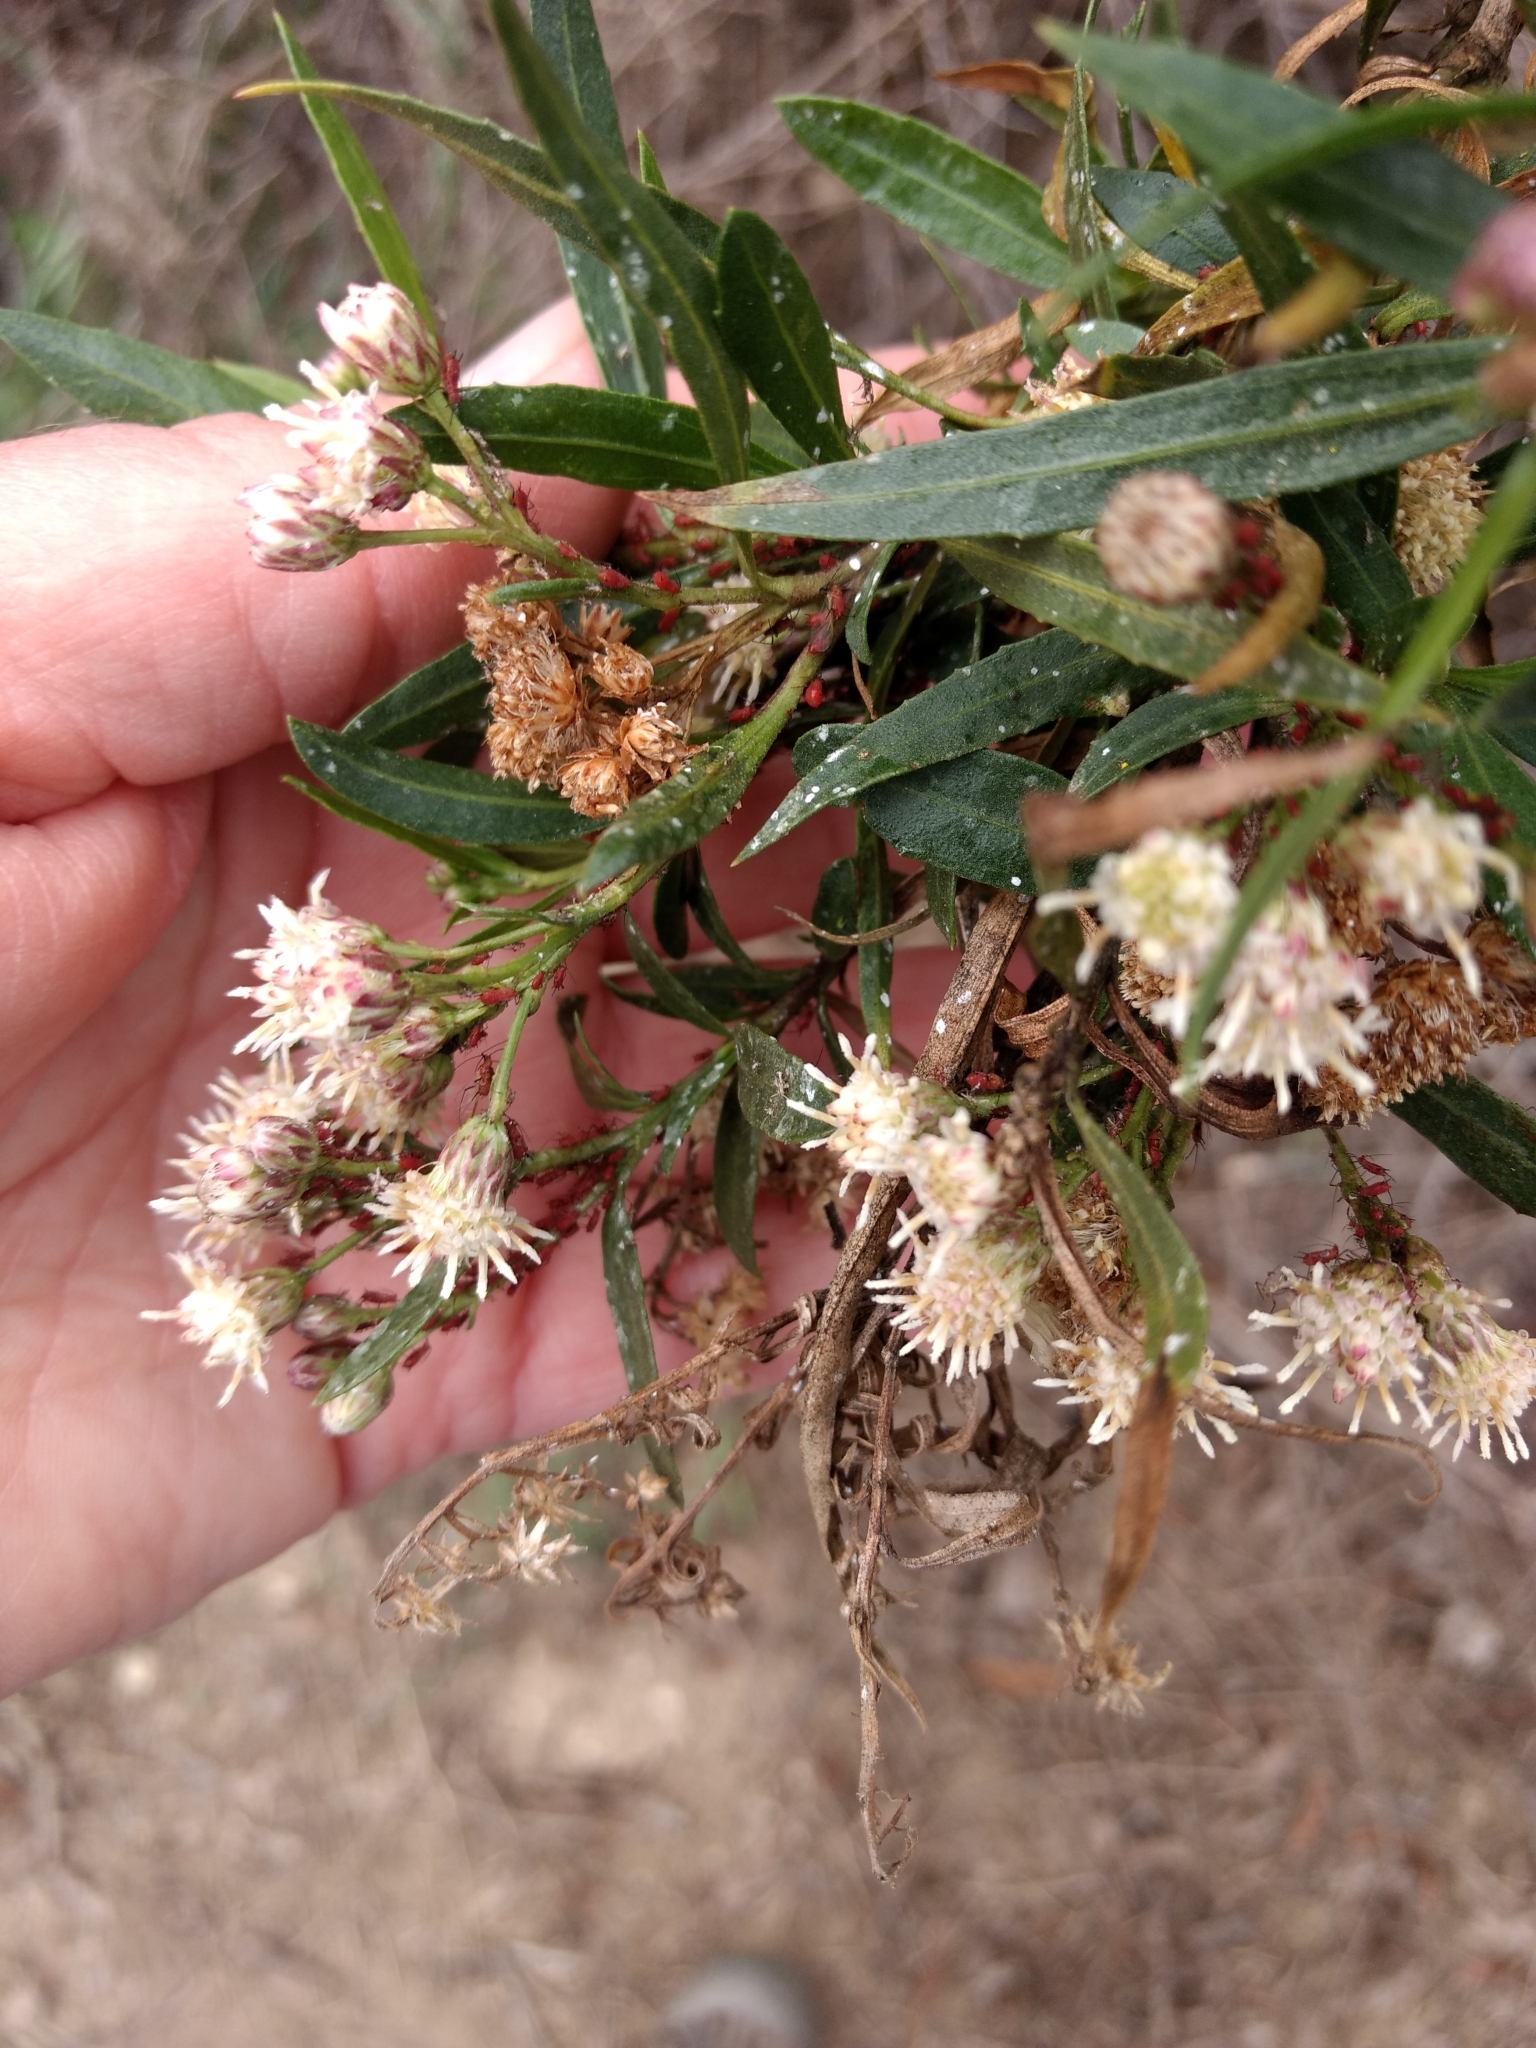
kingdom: Plantae
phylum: Tracheophyta
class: Magnoliopsida
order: Asterales
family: Asteraceae
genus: Baccharis
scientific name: Baccharis salicifolia
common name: Sticky baccharis
